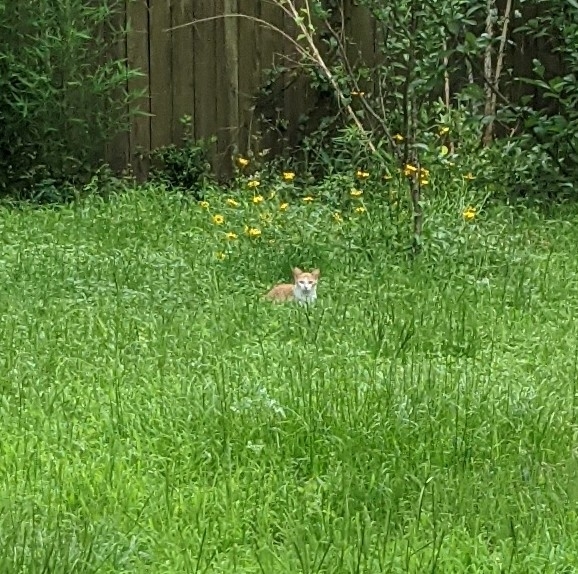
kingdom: Animalia
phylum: Chordata
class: Mammalia
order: Carnivora
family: Felidae
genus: Felis
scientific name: Felis catus
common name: Domestic cat
